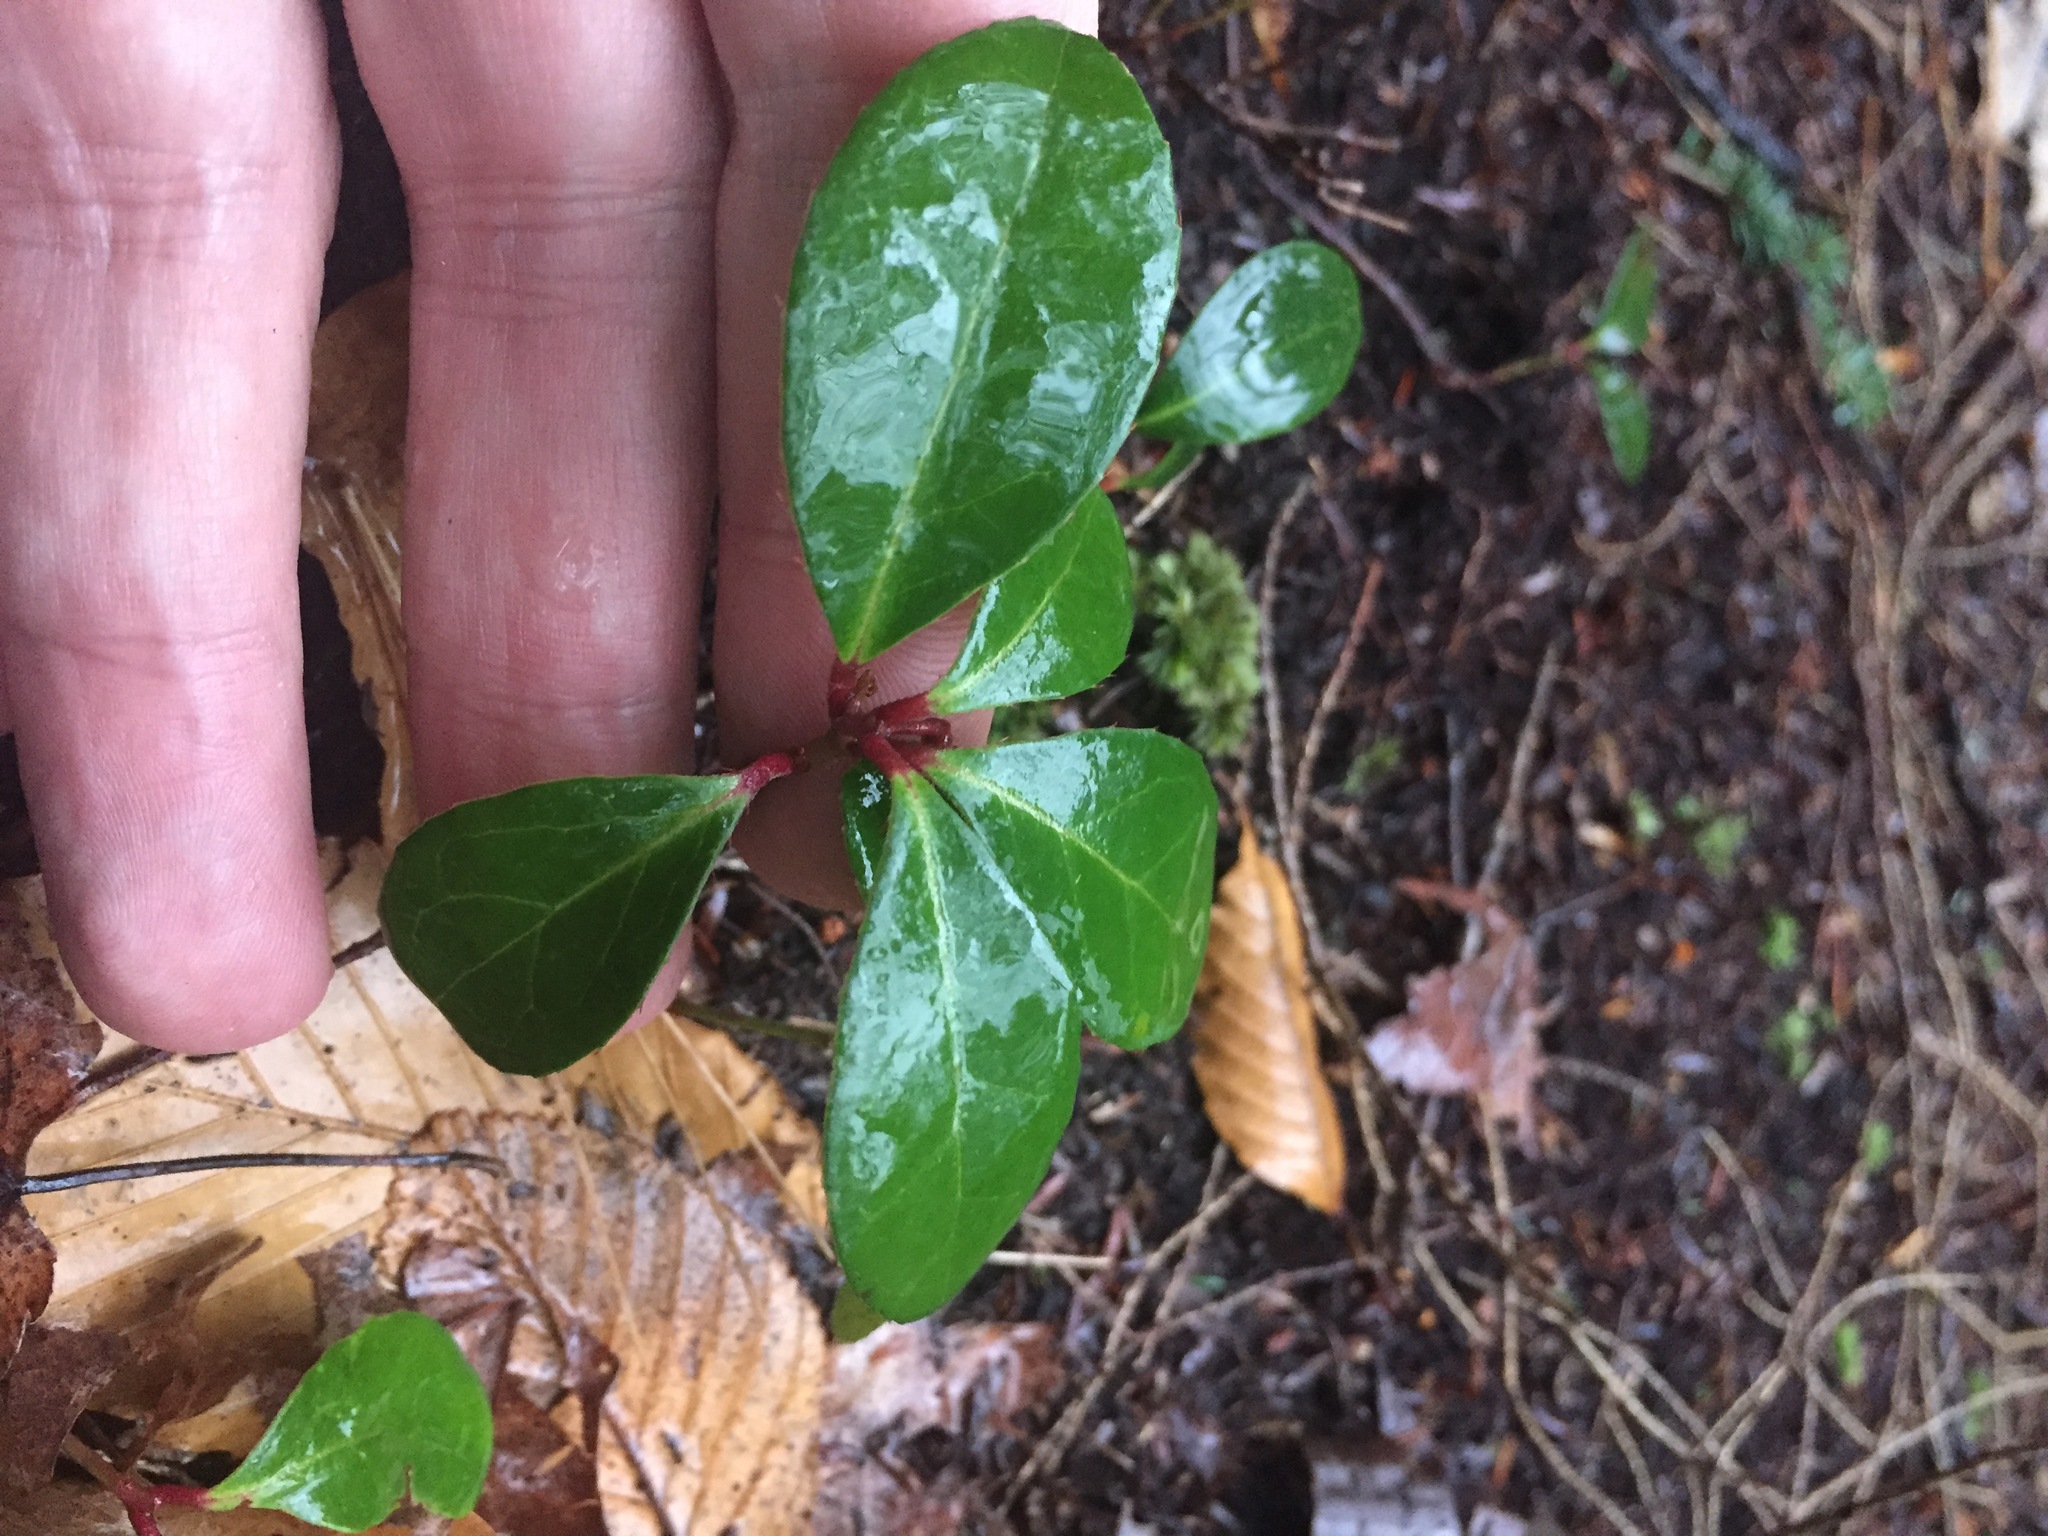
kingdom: Plantae
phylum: Tracheophyta
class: Magnoliopsida
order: Ericales
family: Ericaceae
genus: Gaultheria
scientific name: Gaultheria procumbens
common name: Checkerberry
